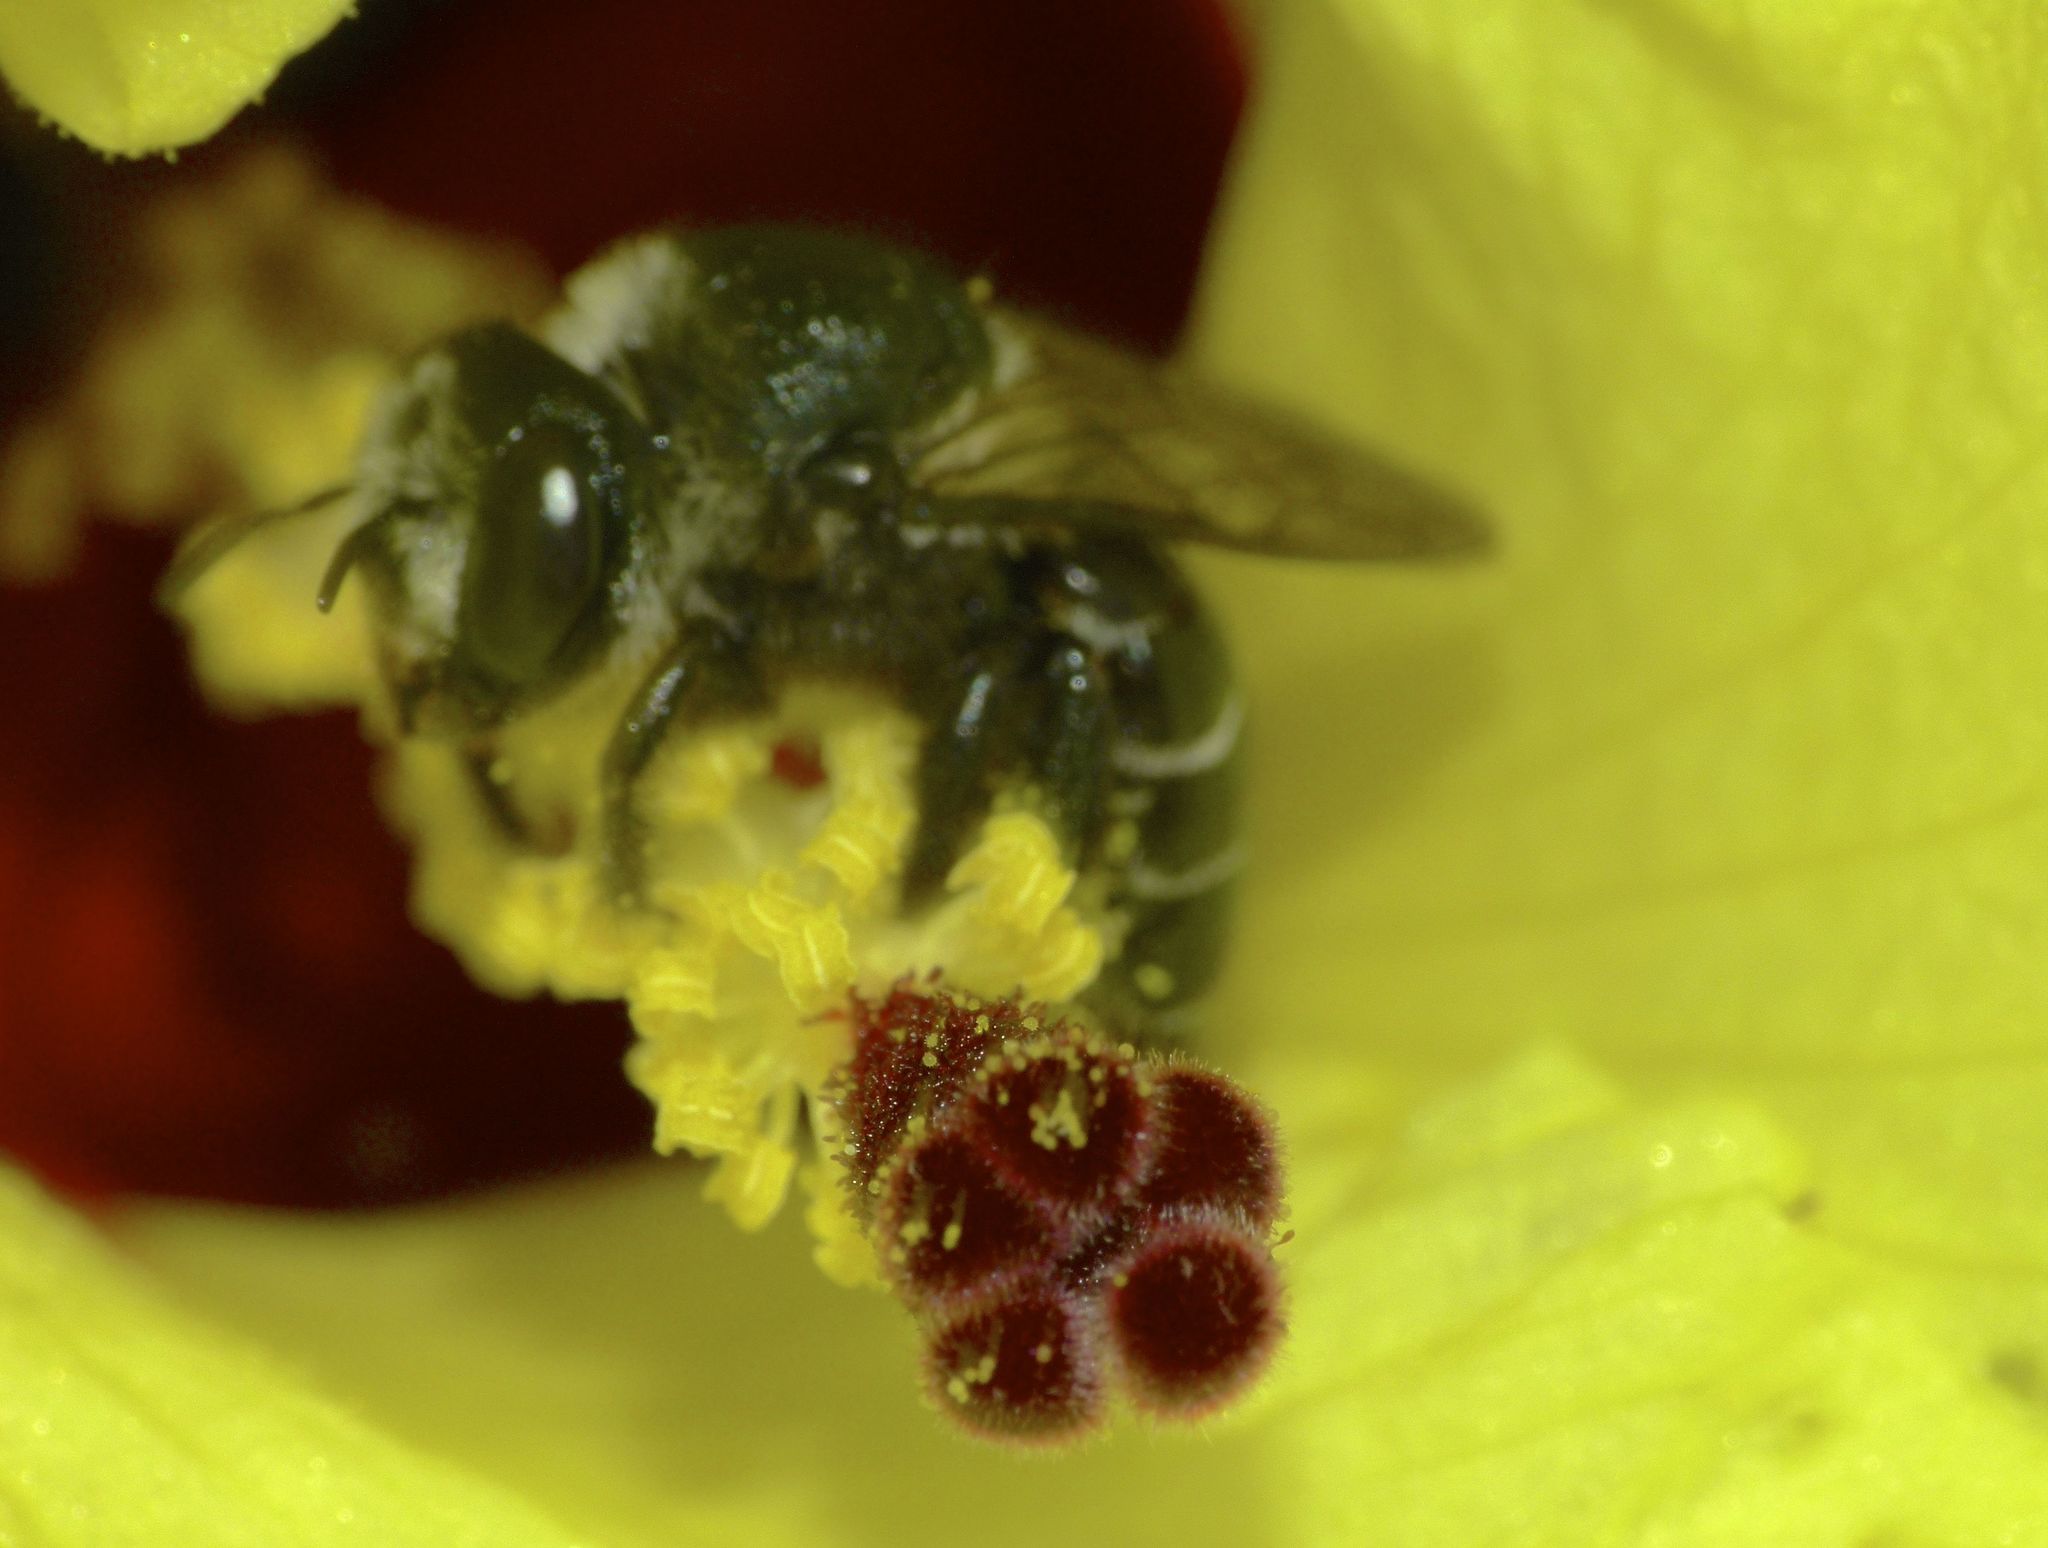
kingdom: Animalia
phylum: Arthropoda
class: Insecta
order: Hymenoptera
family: Megachilidae
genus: Lithurgus
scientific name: Lithurgus atratiformis
